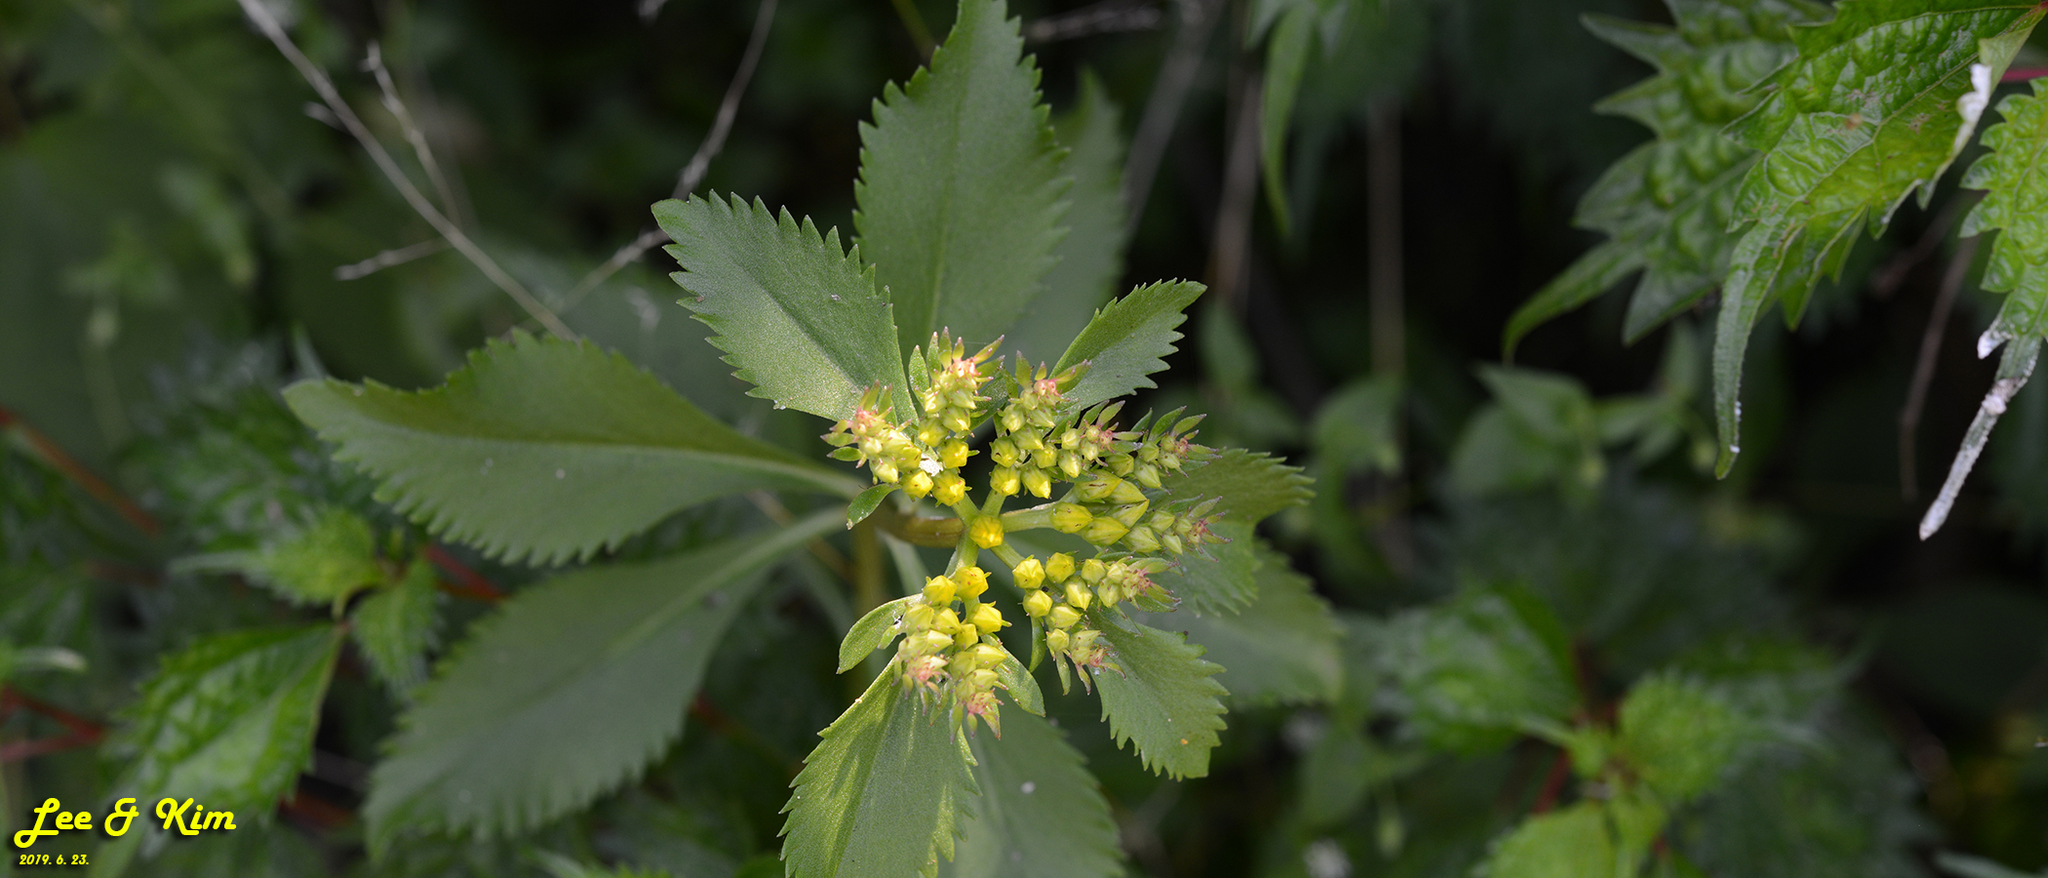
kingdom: Plantae
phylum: Tracheophyta
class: Magnoliopsida
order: Saxifragales
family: Crassulaceae
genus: Phedimus
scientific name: Phedimus aizoon
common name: Orpin aizoon
